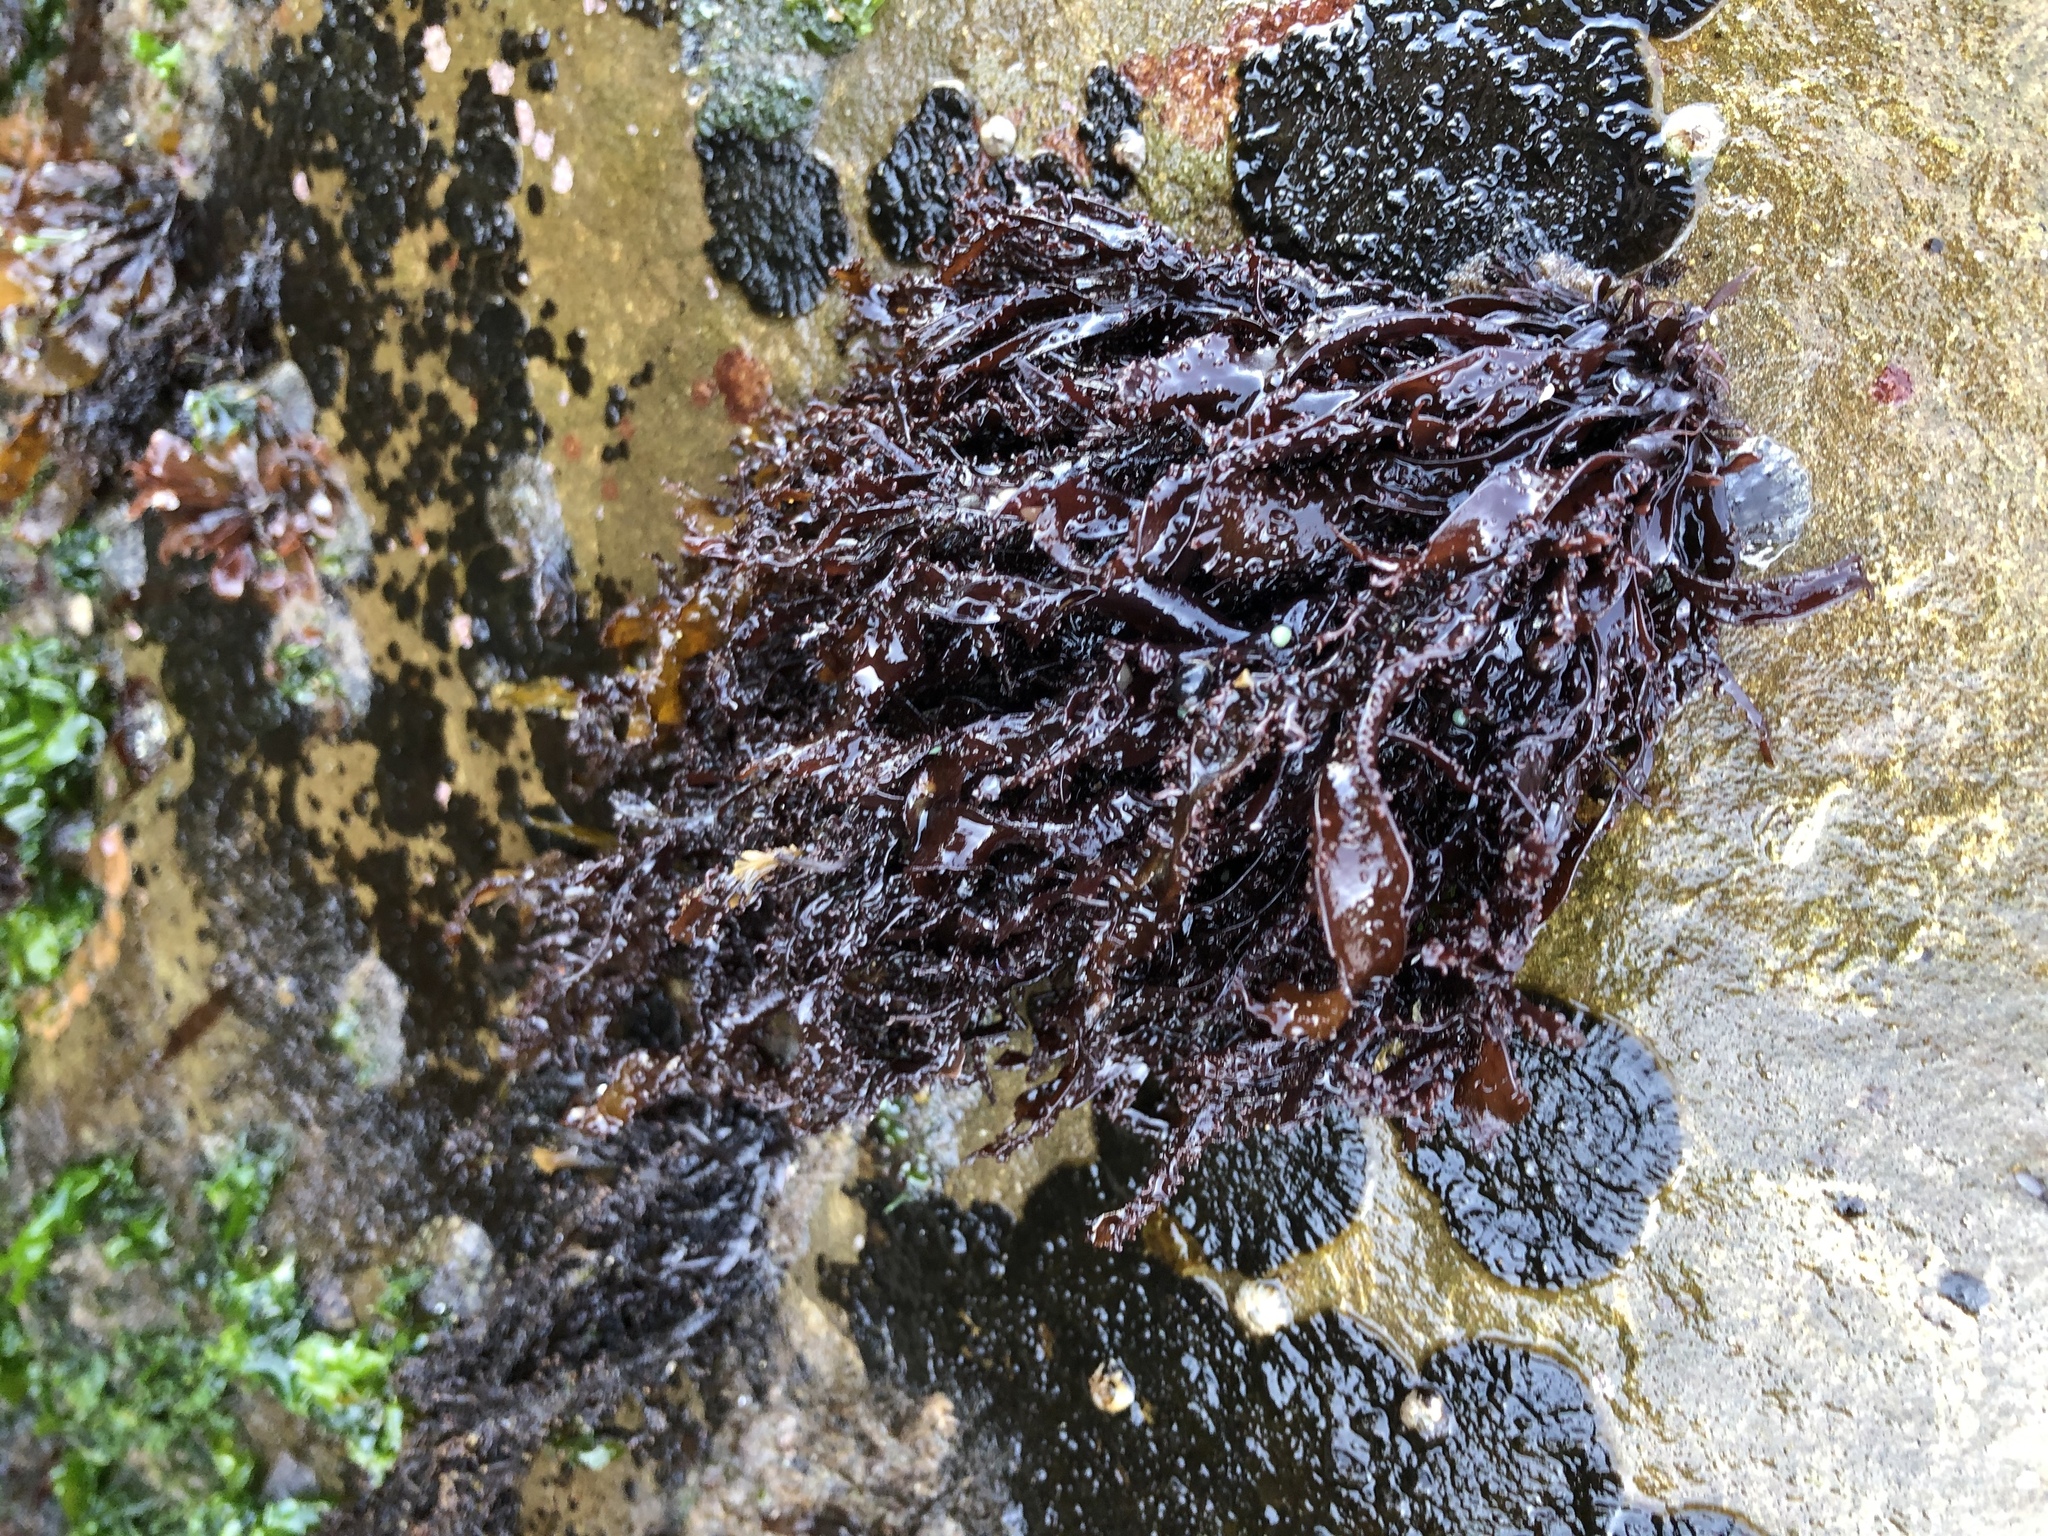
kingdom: Plantae
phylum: Rhodophyta
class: Florideophyceae
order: Gigartinales
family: Phyllophoraceae
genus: Mastocarpus
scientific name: Mastocarpus papillatus
